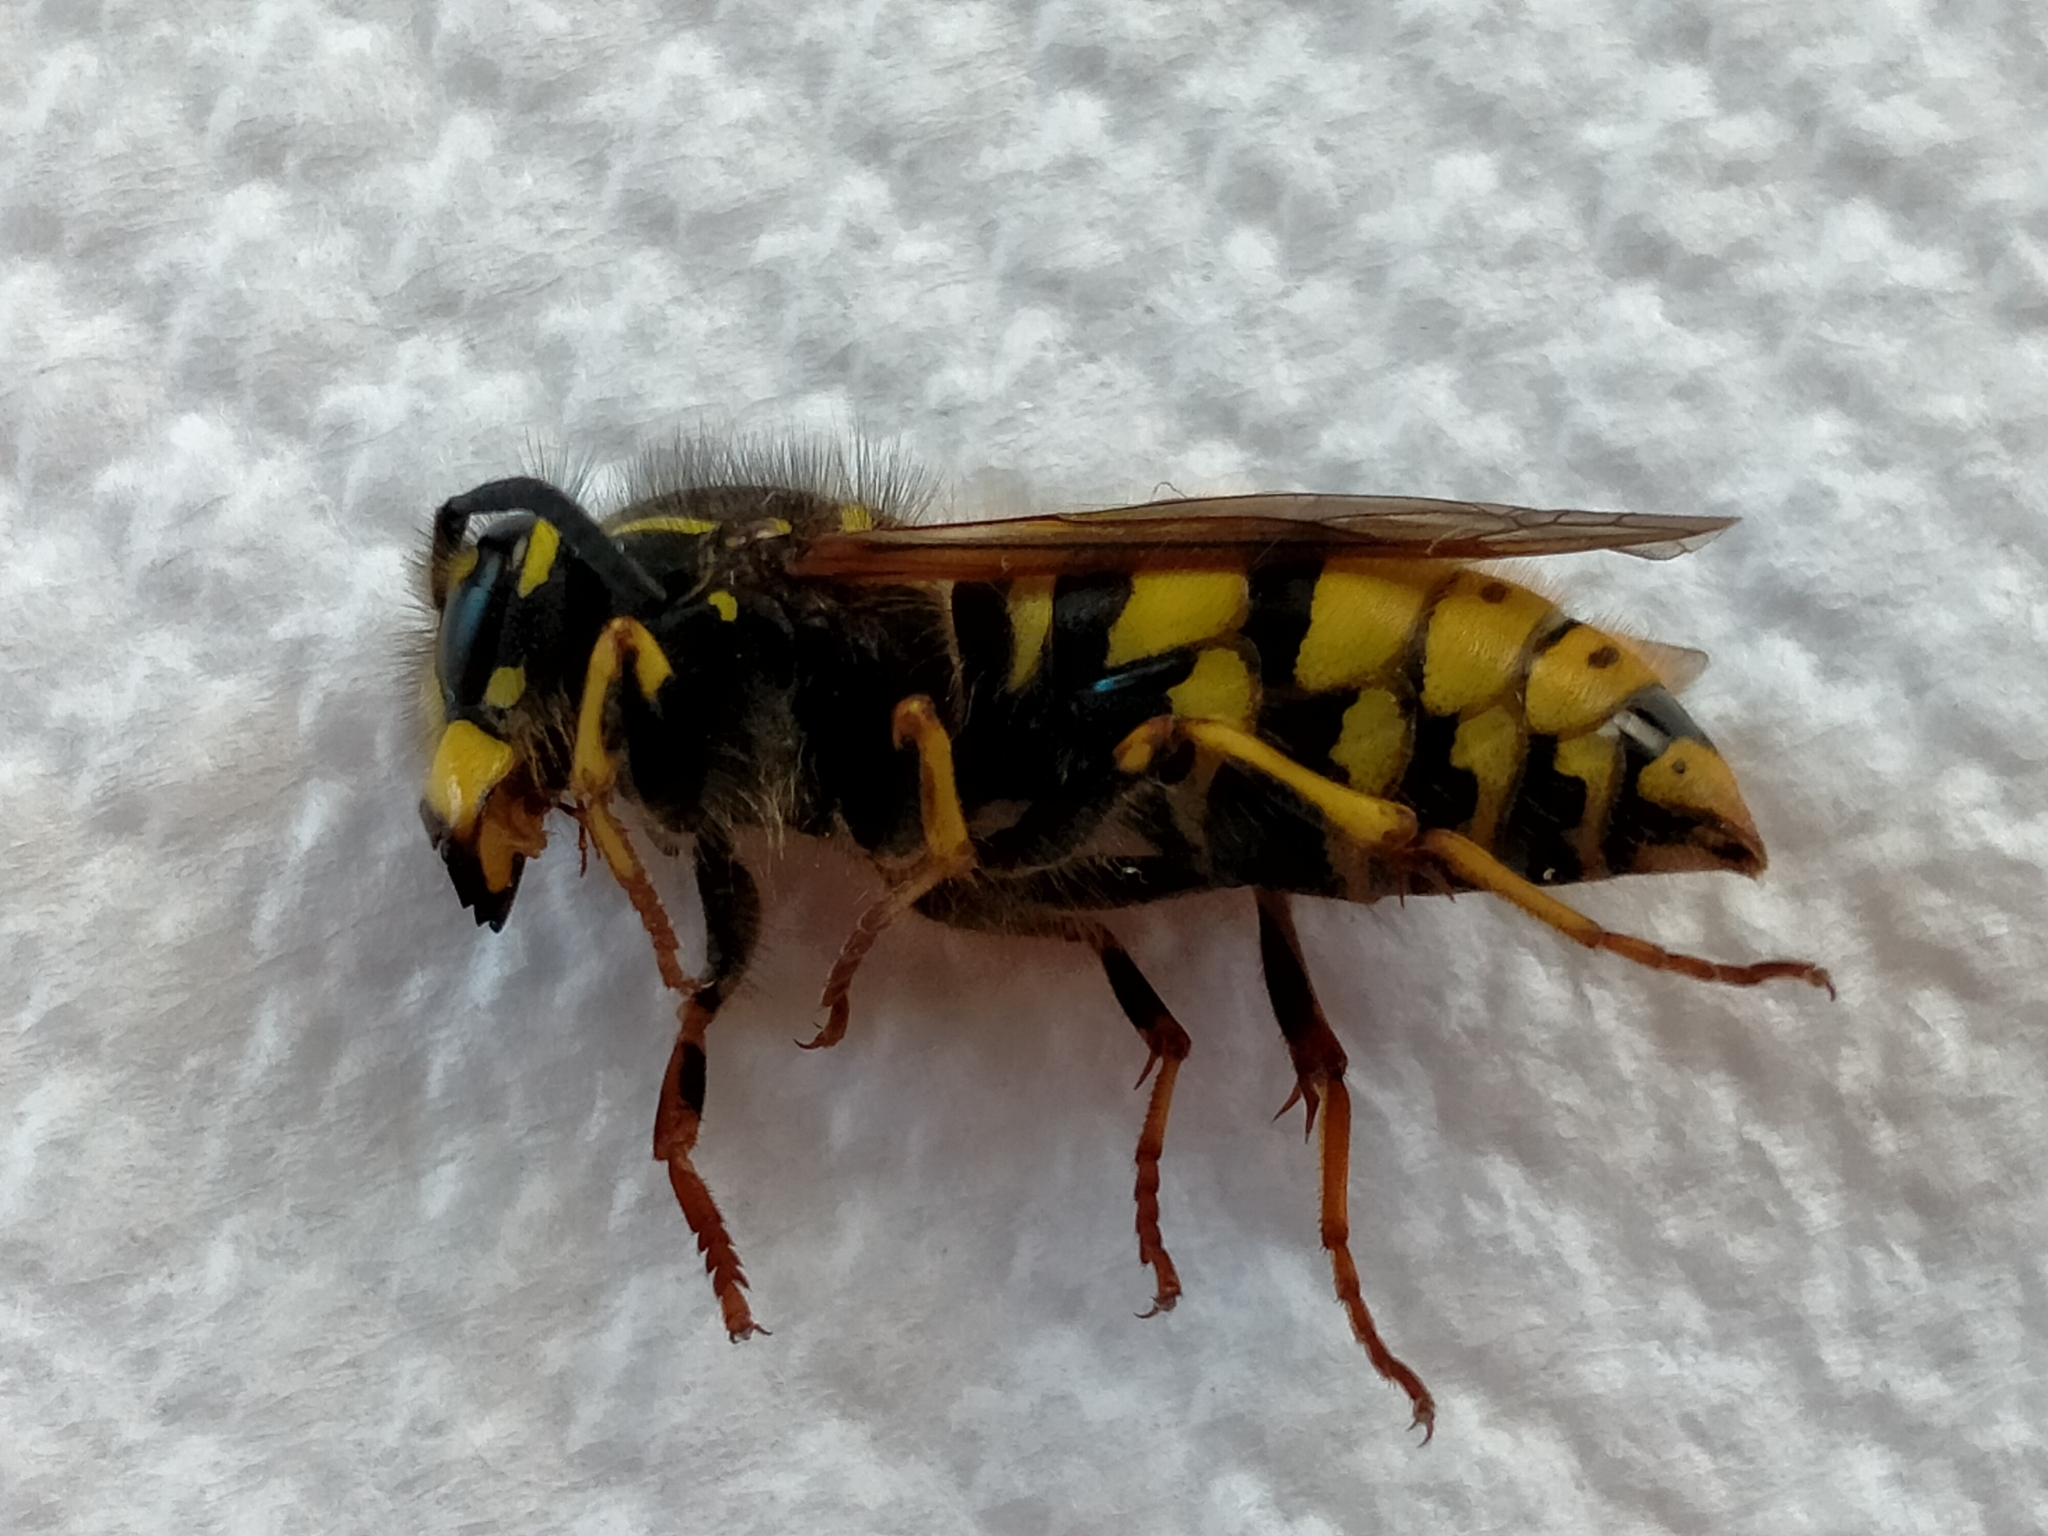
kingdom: Animalia
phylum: Arthropoda
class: Insecta
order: Hymenoptera
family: Vespidae
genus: Vespula
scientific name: Vespula vulgaris
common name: Common wasp
